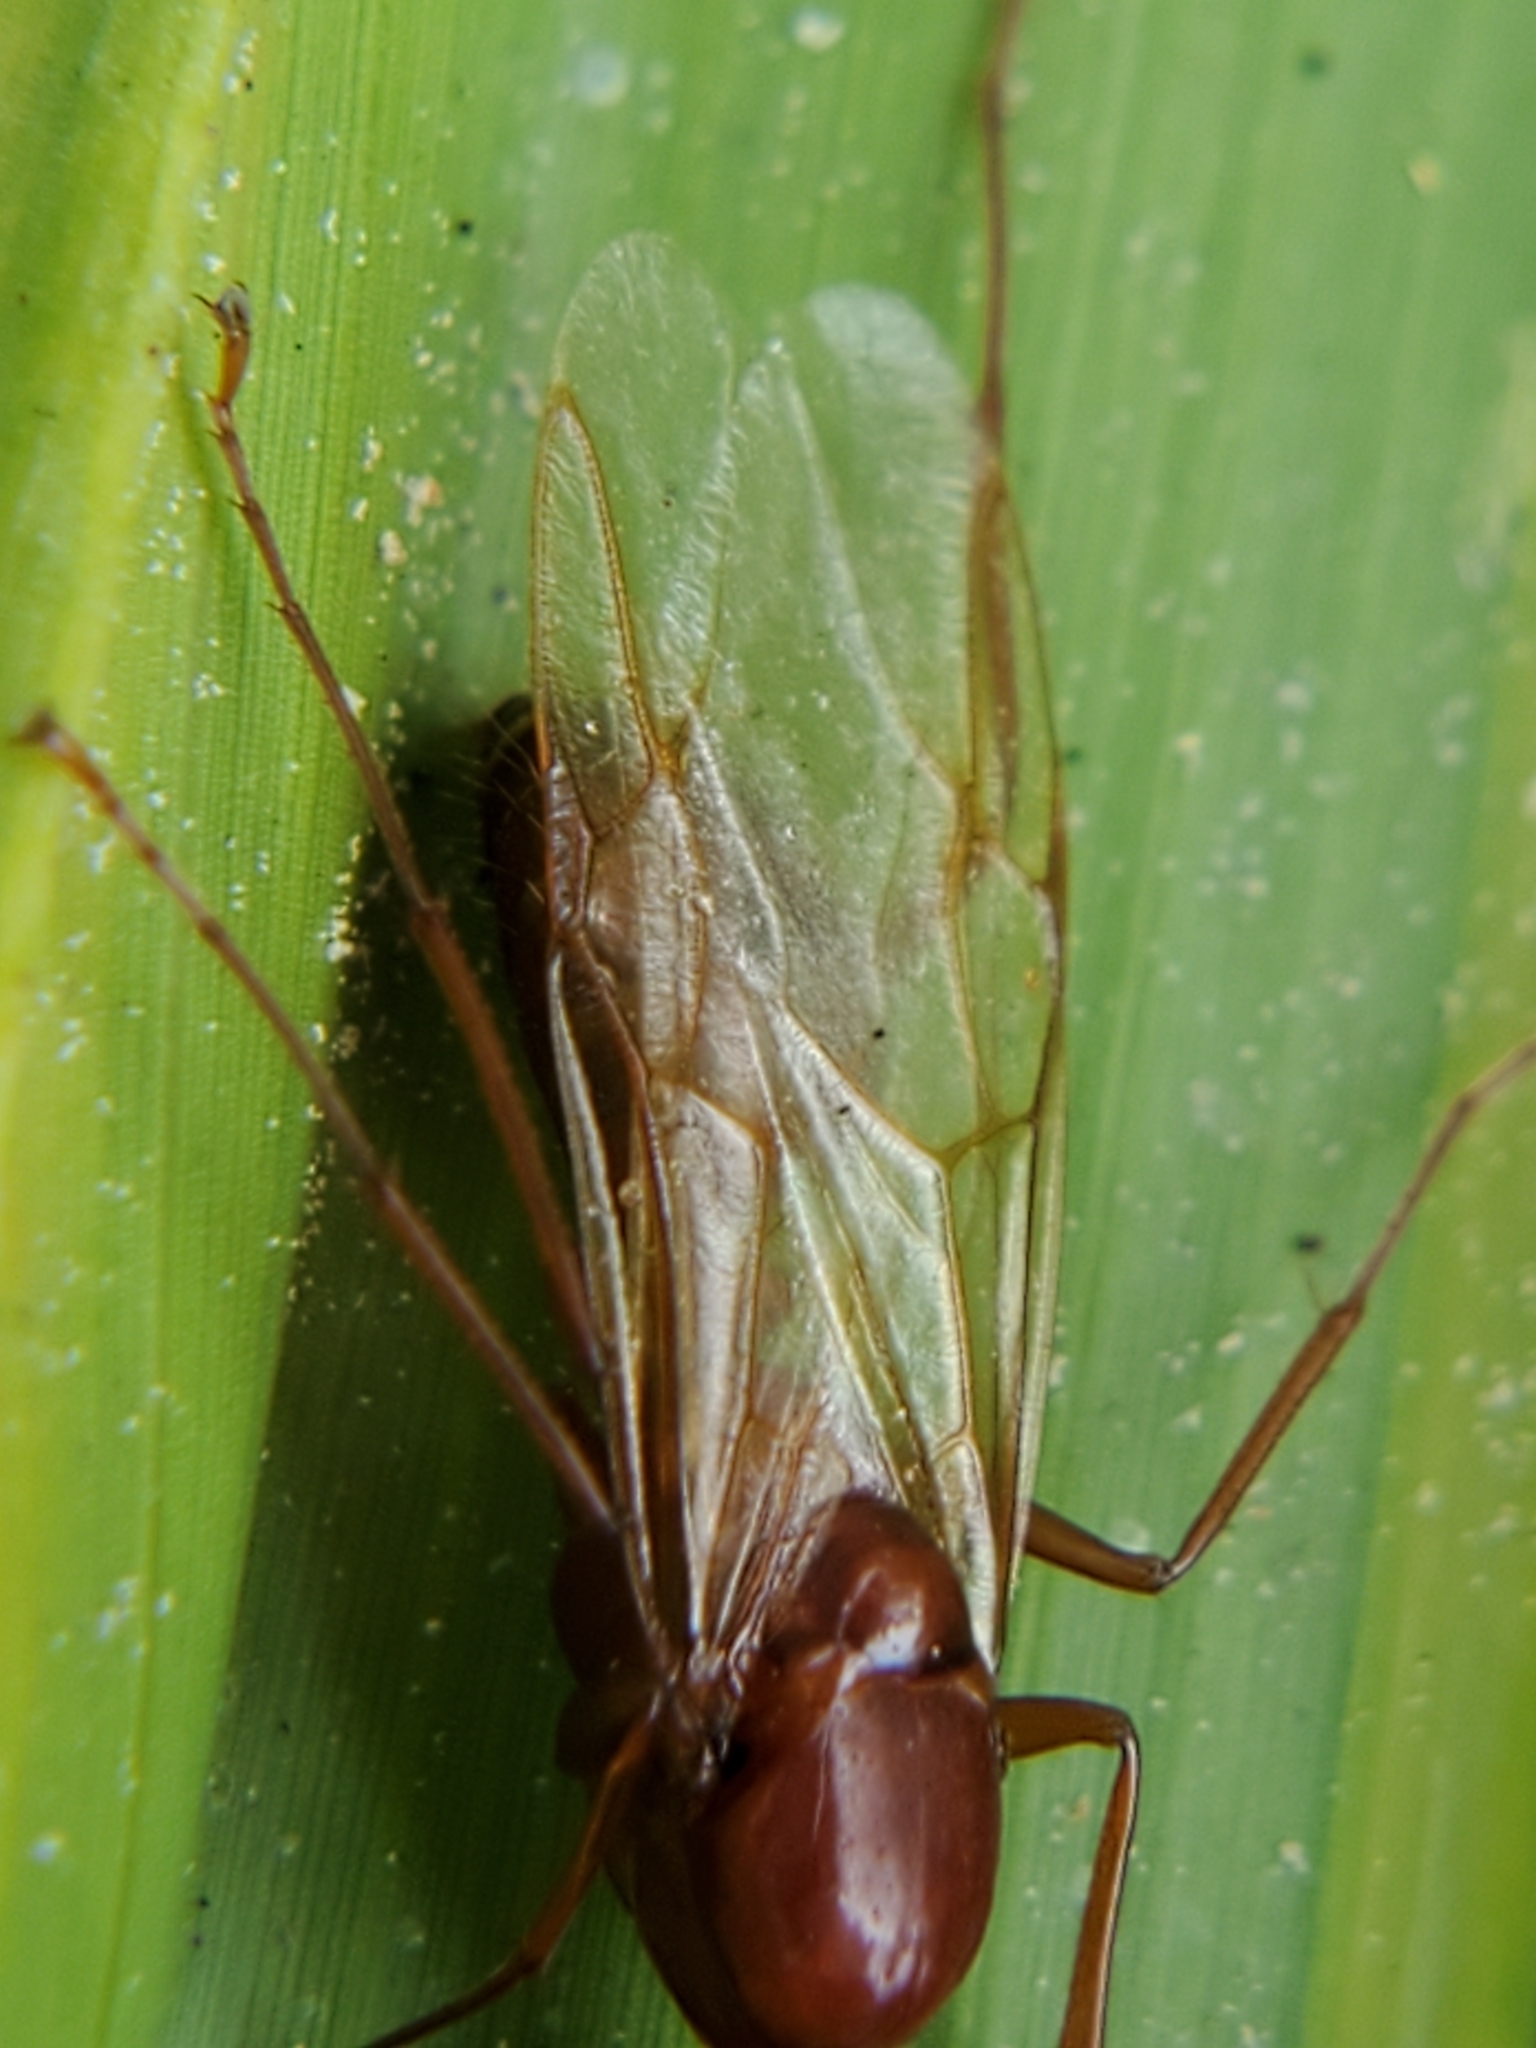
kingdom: Animalia
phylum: Arthropoda
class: Insecta
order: Hymenoptera
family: Formicidae
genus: Camponotus
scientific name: Camponotus castaneus
